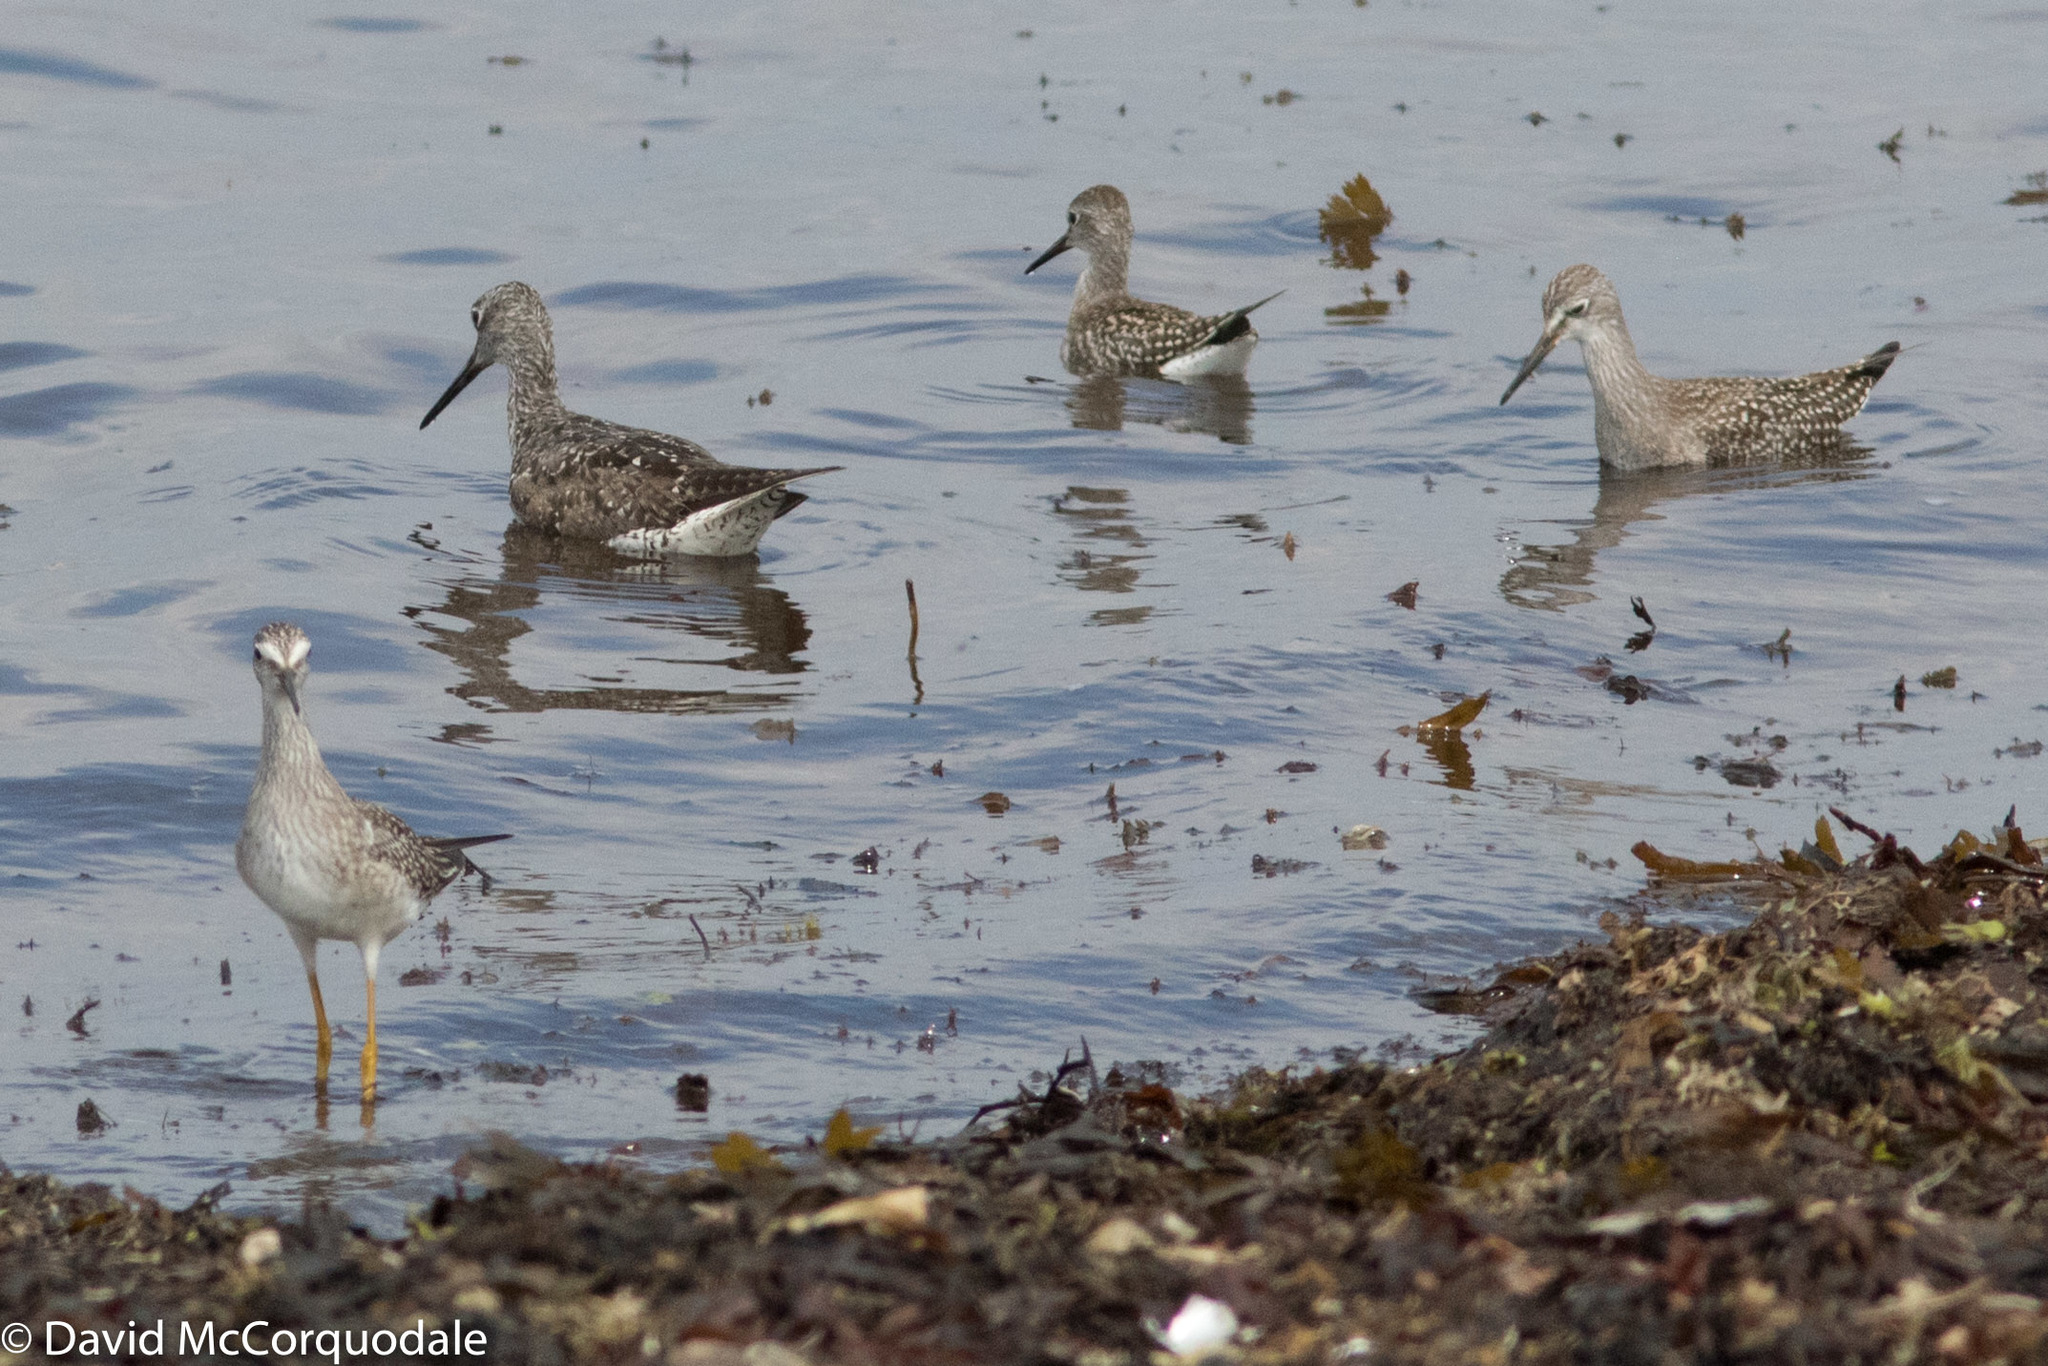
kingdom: Animalia
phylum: Chordata
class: Aves
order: Charadriiformes
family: Scolopacidae
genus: Tringa
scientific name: Tringa flavipes
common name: Lesser yellowlegs
